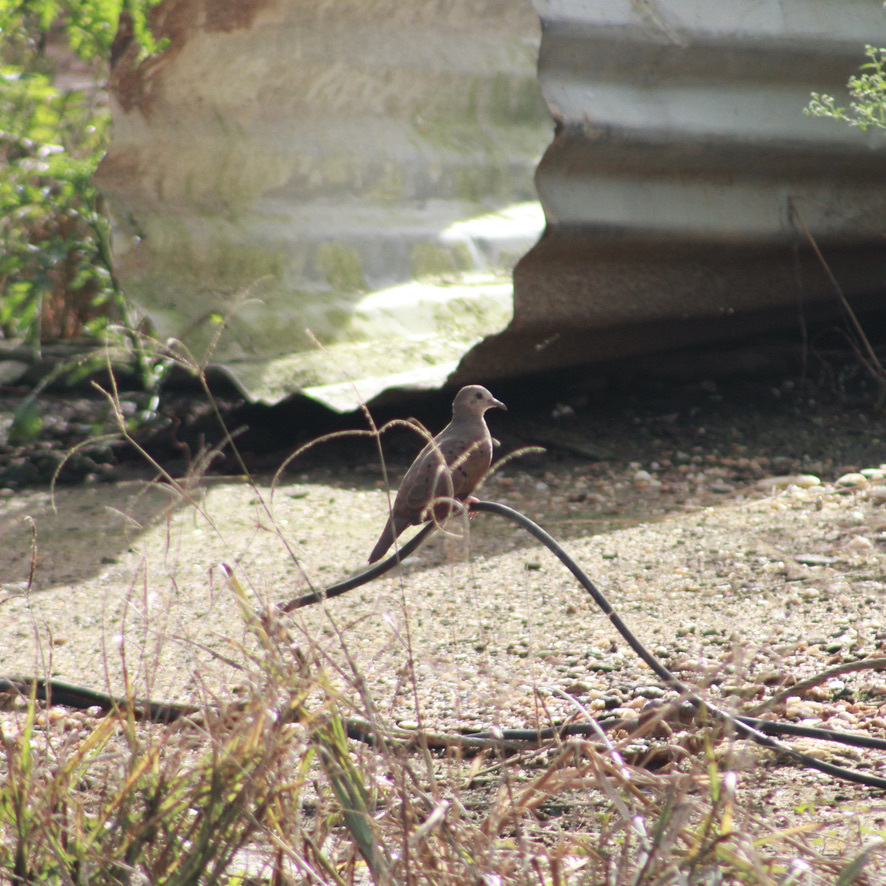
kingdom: Animalia
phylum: Chordata
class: Aves
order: Columbiformes
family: Columbidae
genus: Columbina
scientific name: Columbina talpacoti
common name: Ruddy ground dove
